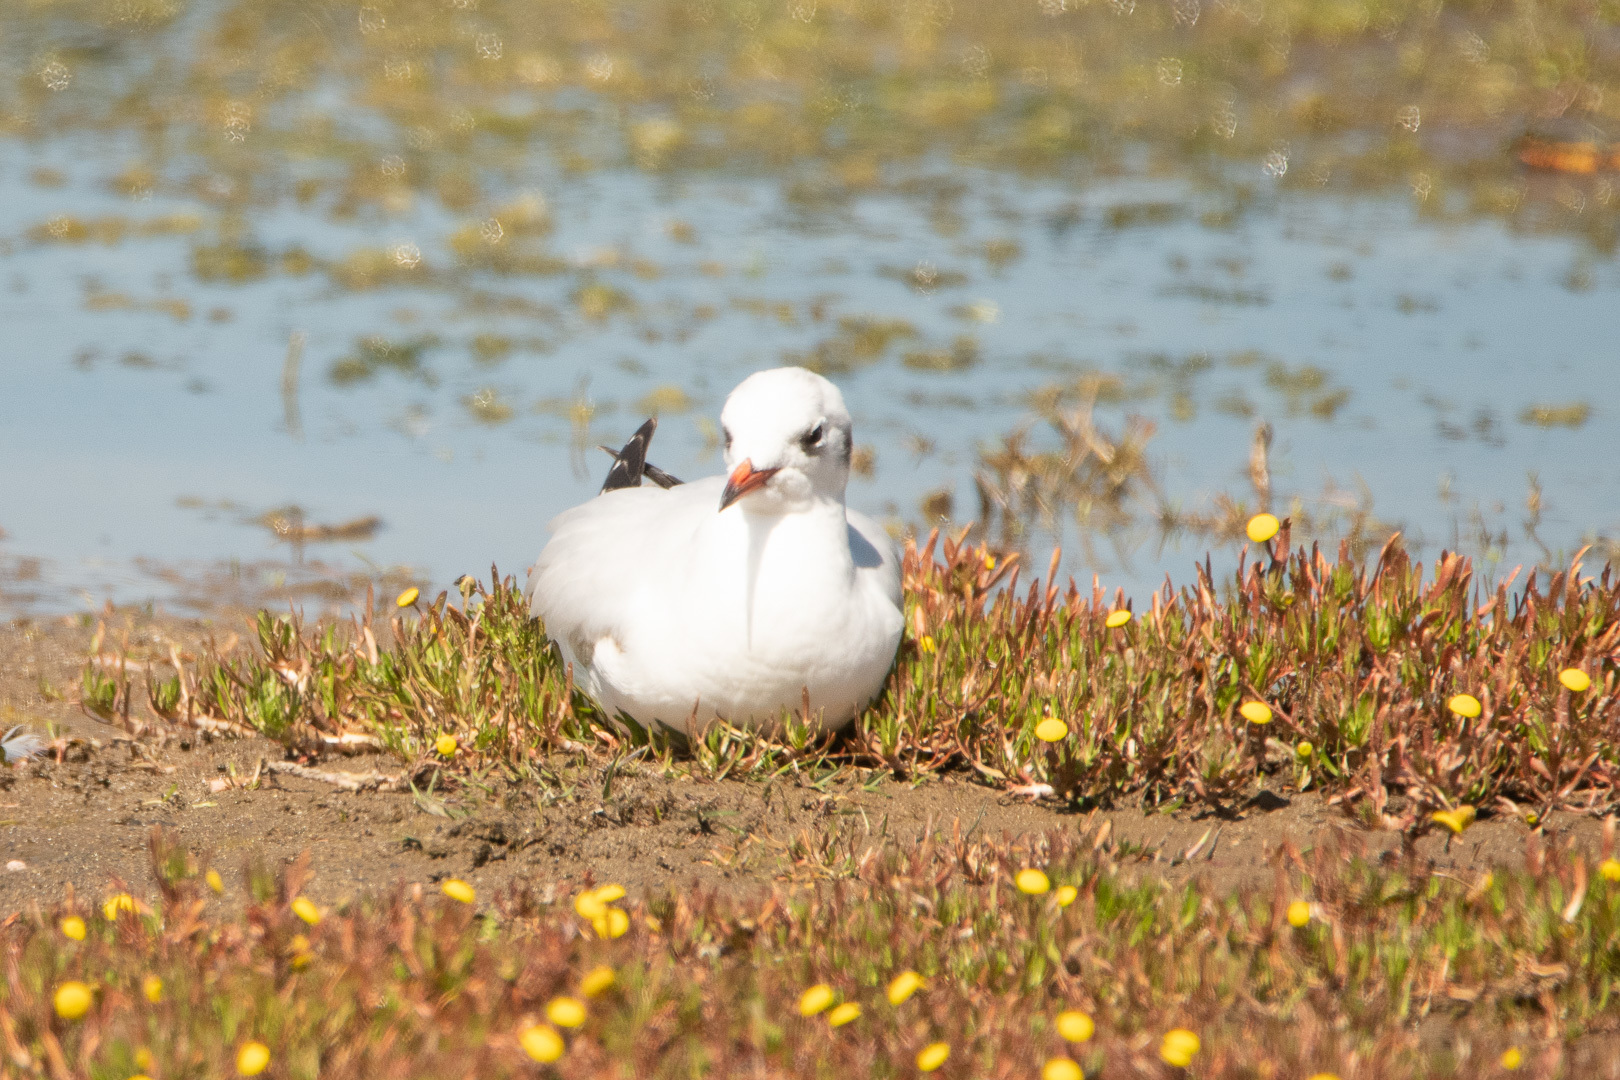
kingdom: Animalia
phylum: Chordata
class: Aves
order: Charadriiformes
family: Laridae
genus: Chroicocephalus
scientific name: Chroicocephalus maculipennis
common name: Brown-hooded gull
